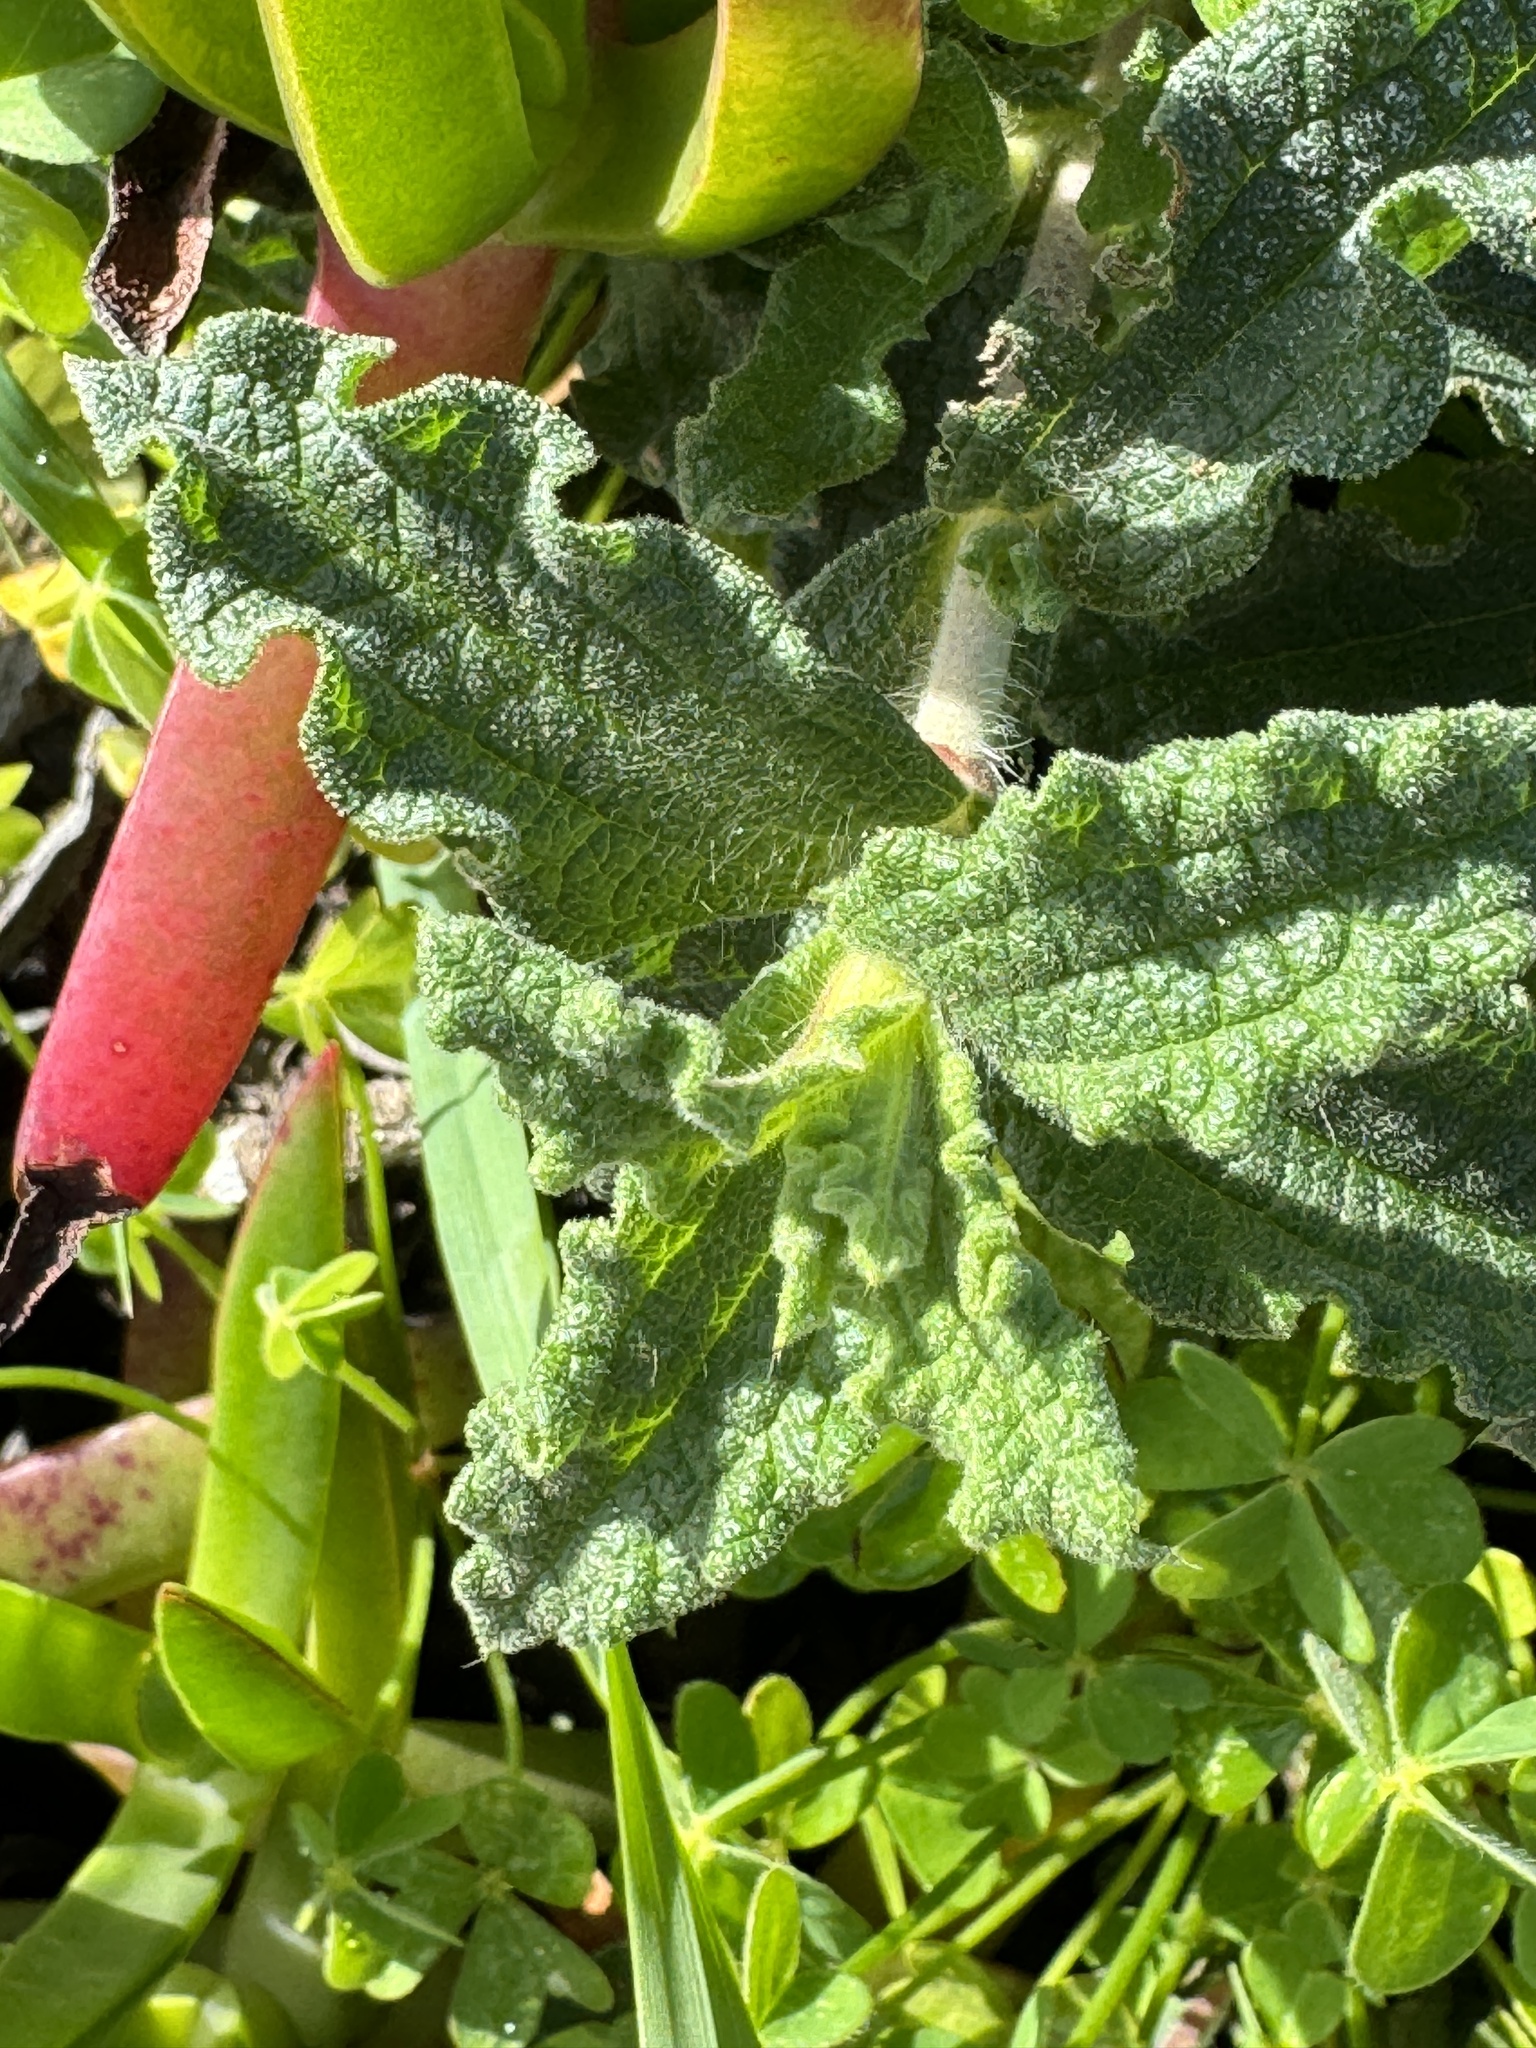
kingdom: Plantae
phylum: Tracheophyta
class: Magnoliopsida
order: Malvales
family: Cistaceae
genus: Cistus
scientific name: Cistus crispus
